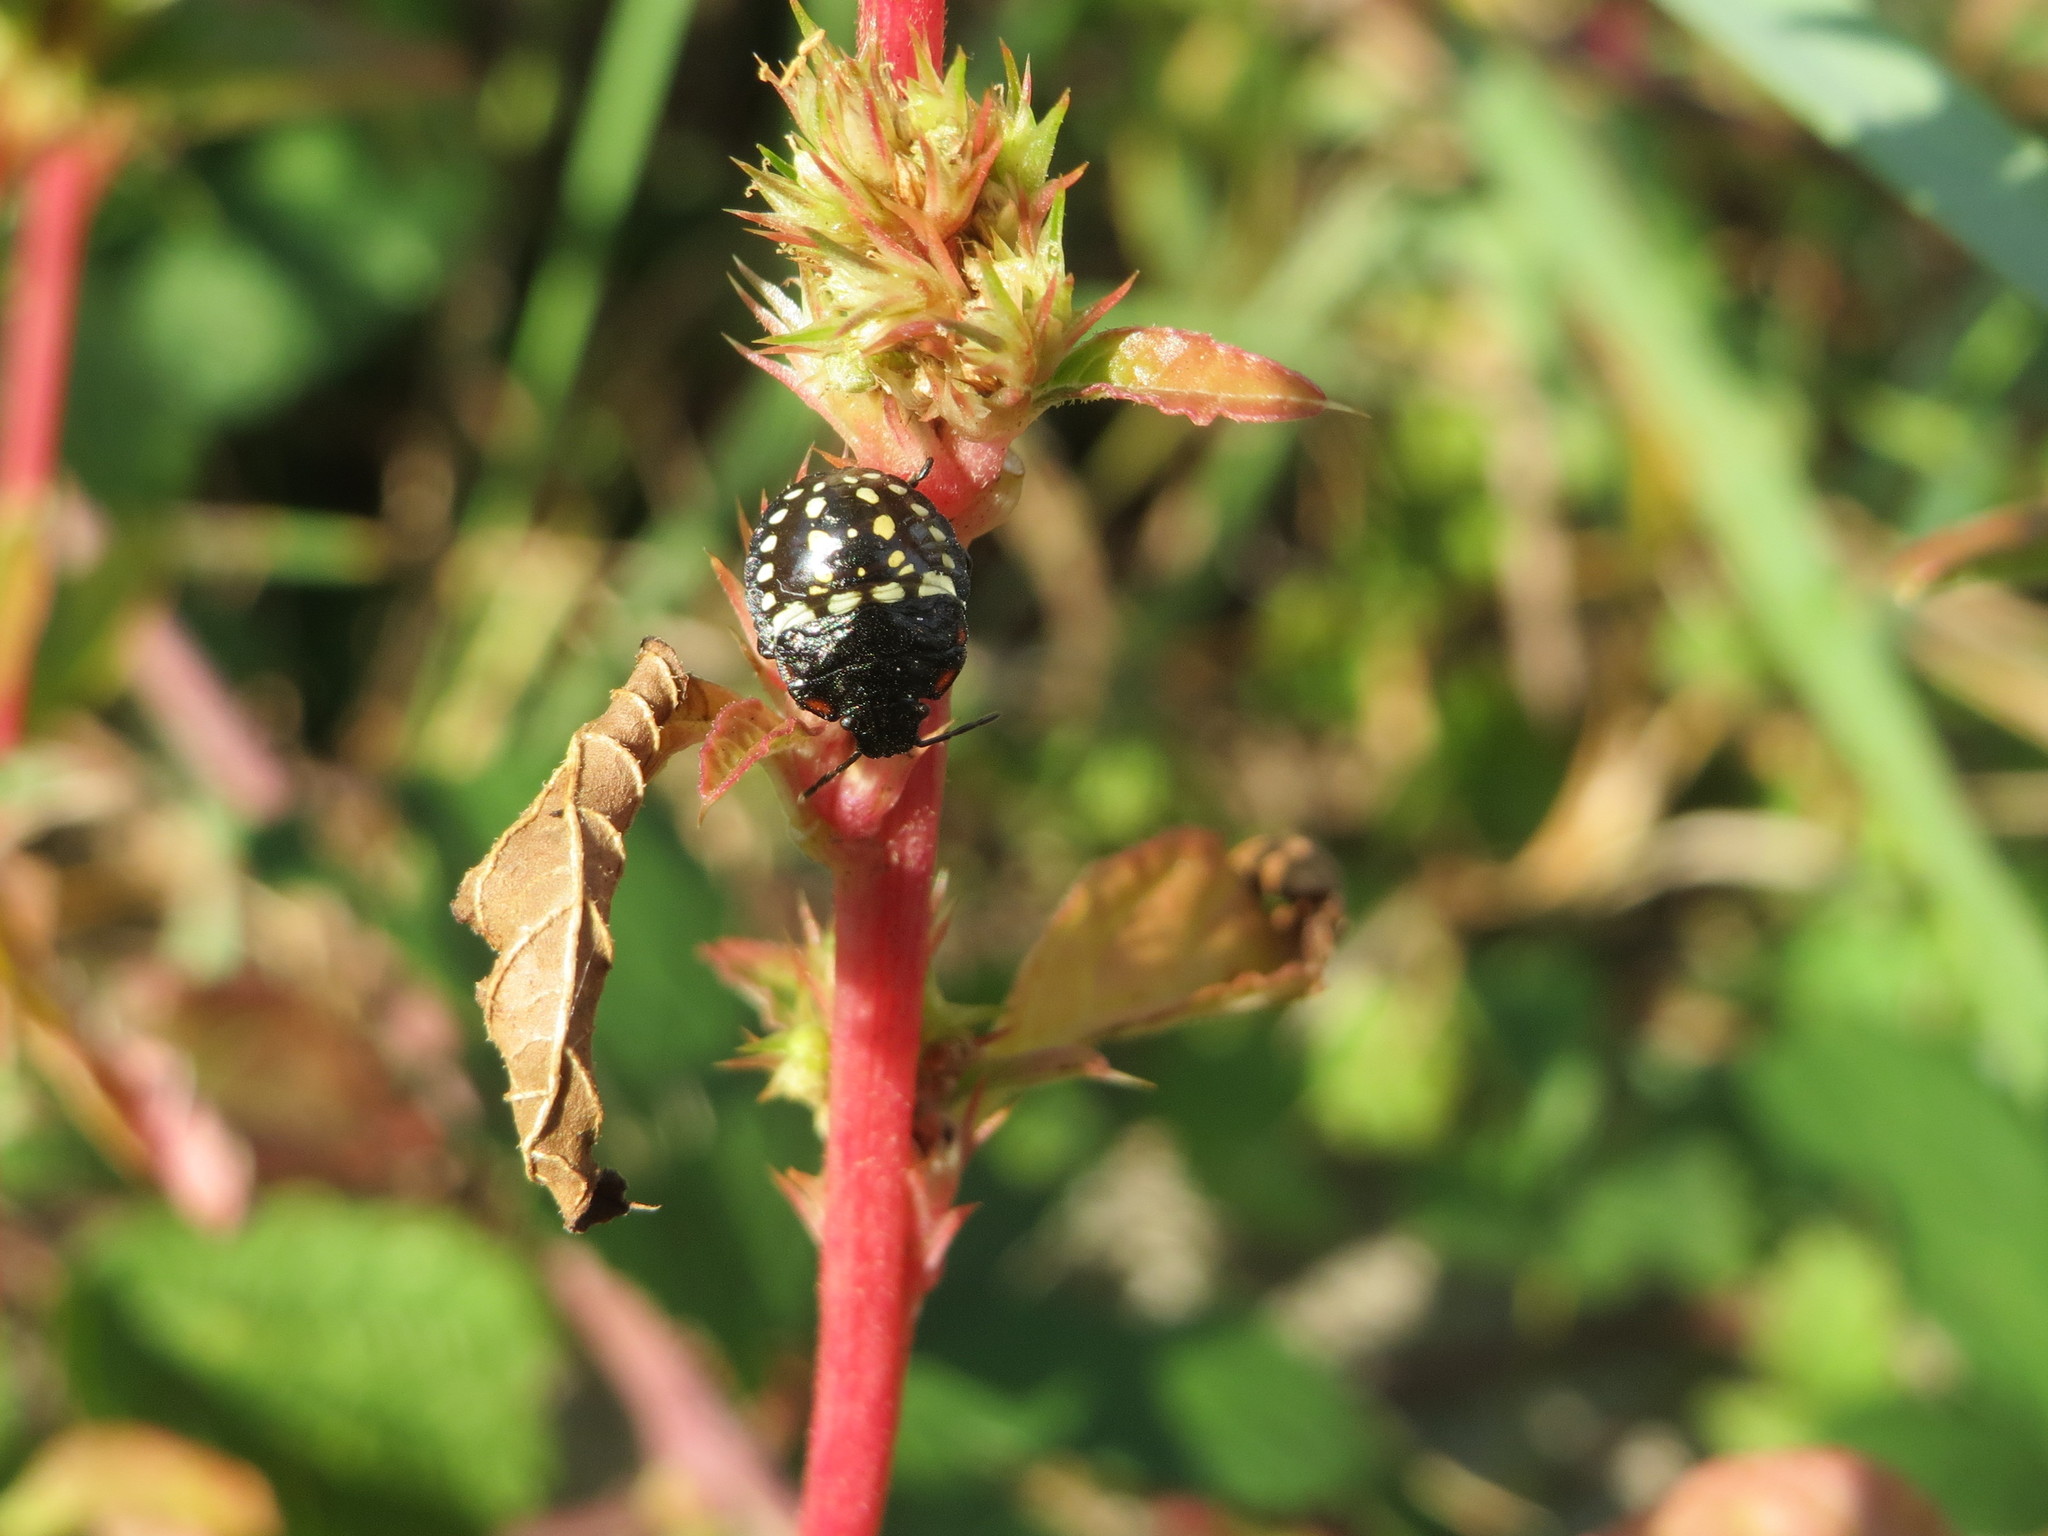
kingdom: Animalia
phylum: Arthropoda
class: Insecta
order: Hemiptera
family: Pentatomidae
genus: Nezara
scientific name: Nezara viridula
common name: Southern green stink bug
